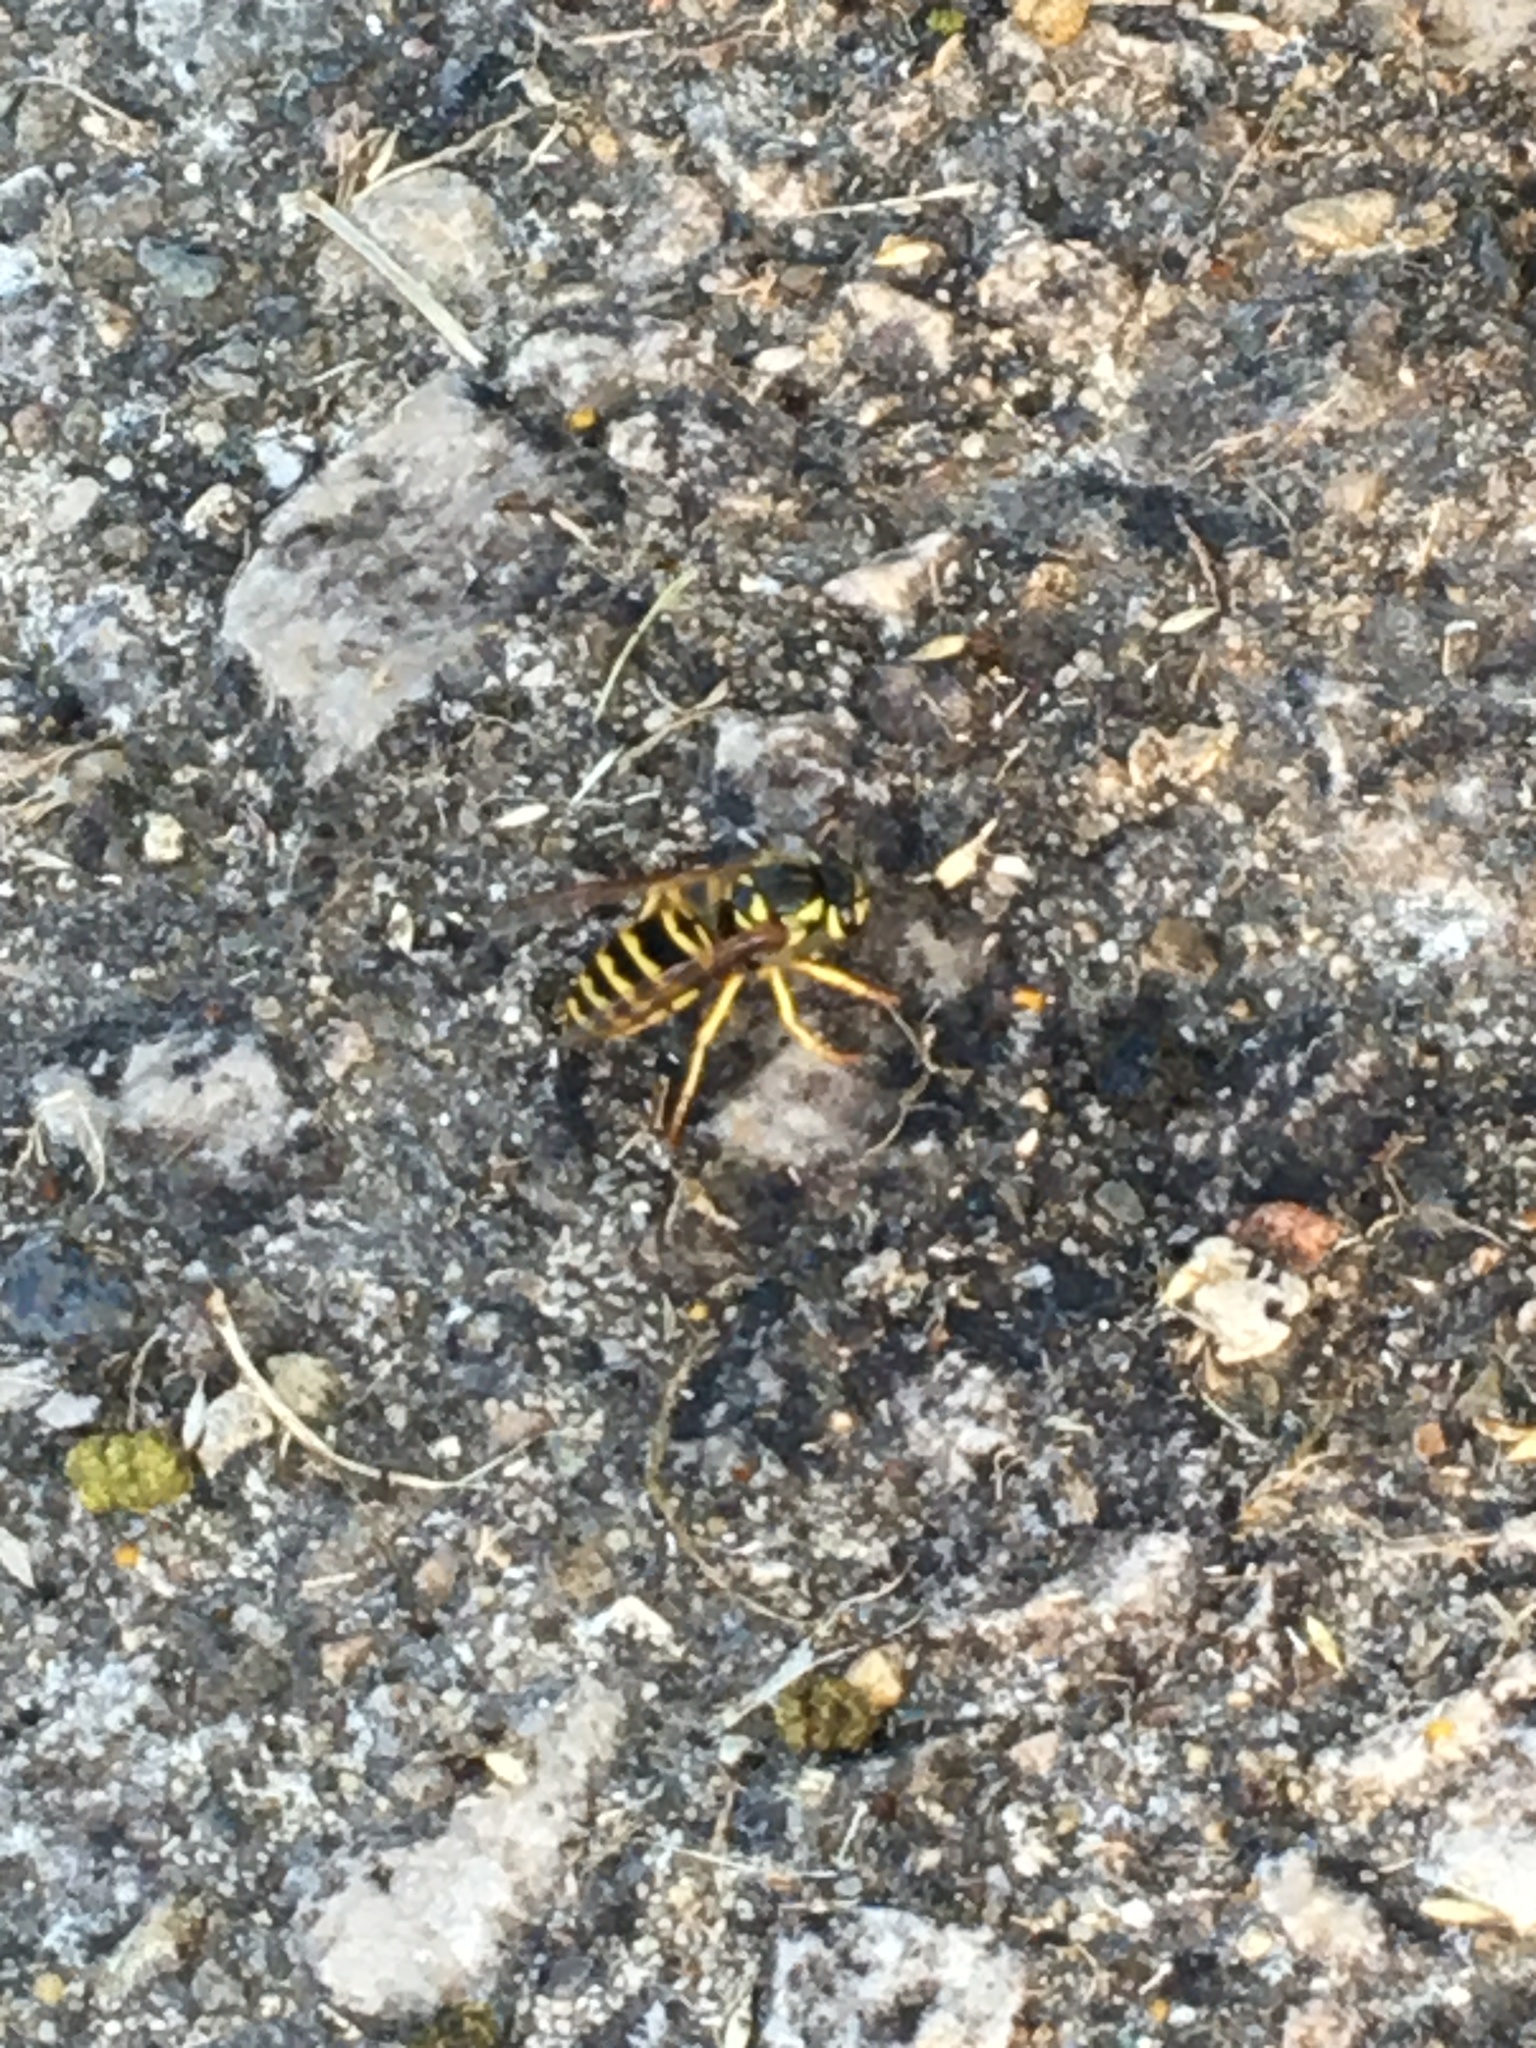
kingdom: Animalia
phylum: Arthropoda
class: Insecta
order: Hymenoptera
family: Vespidae
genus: Vespula
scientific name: Vespula maculifrons
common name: Eastern yellowjacket
